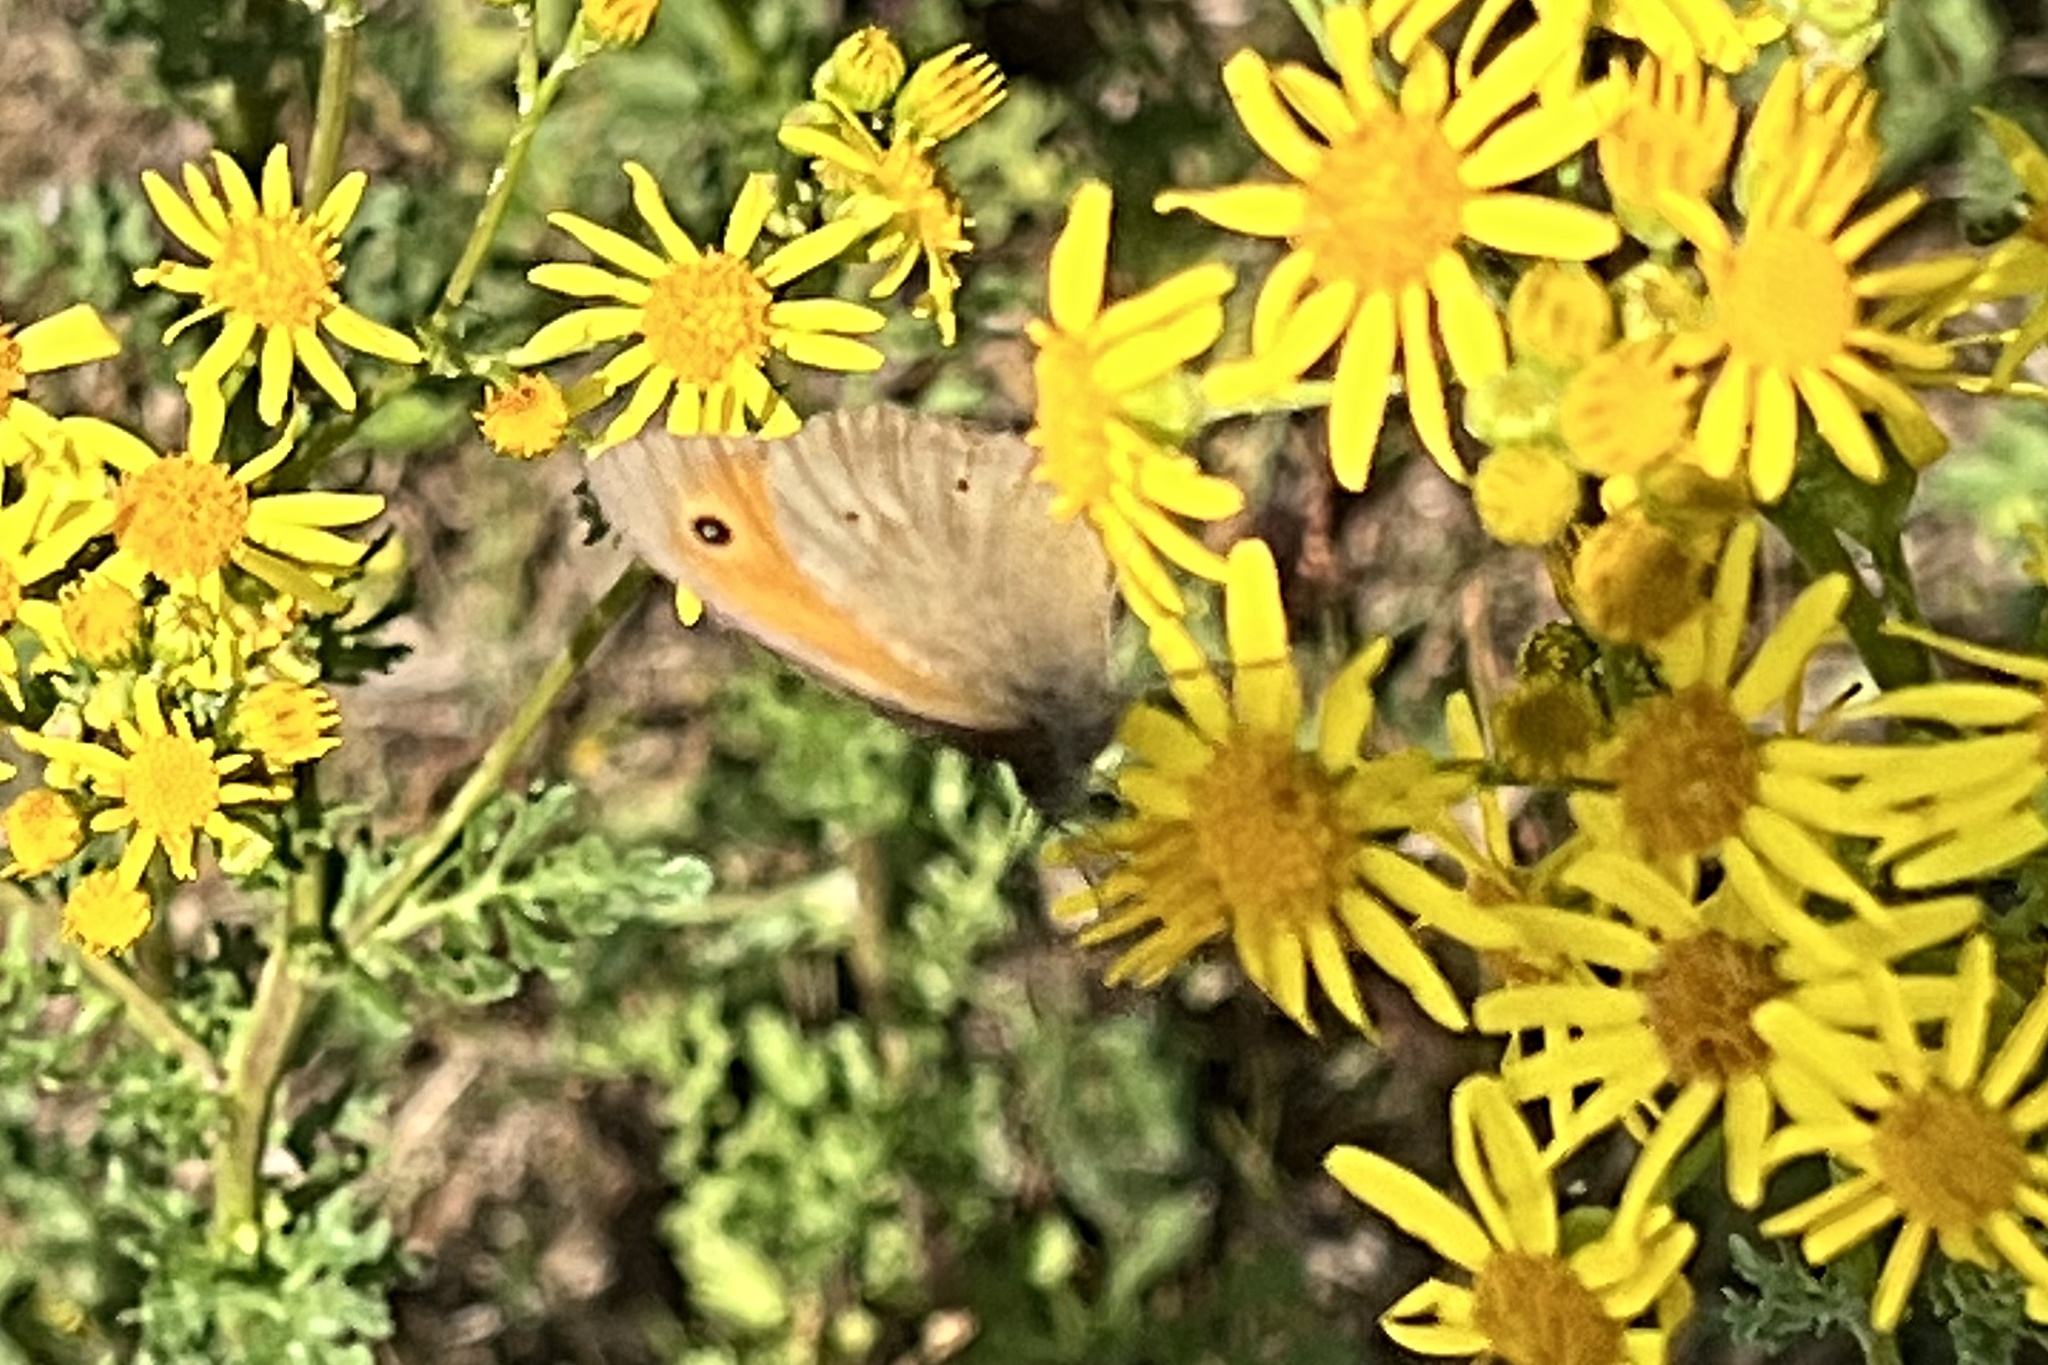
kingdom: Animalia
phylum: Arthropoda
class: Insecta
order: Lepidoptera
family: Nymphalidae
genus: Maniola
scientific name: Maniola jurtina
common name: Meadow brown
